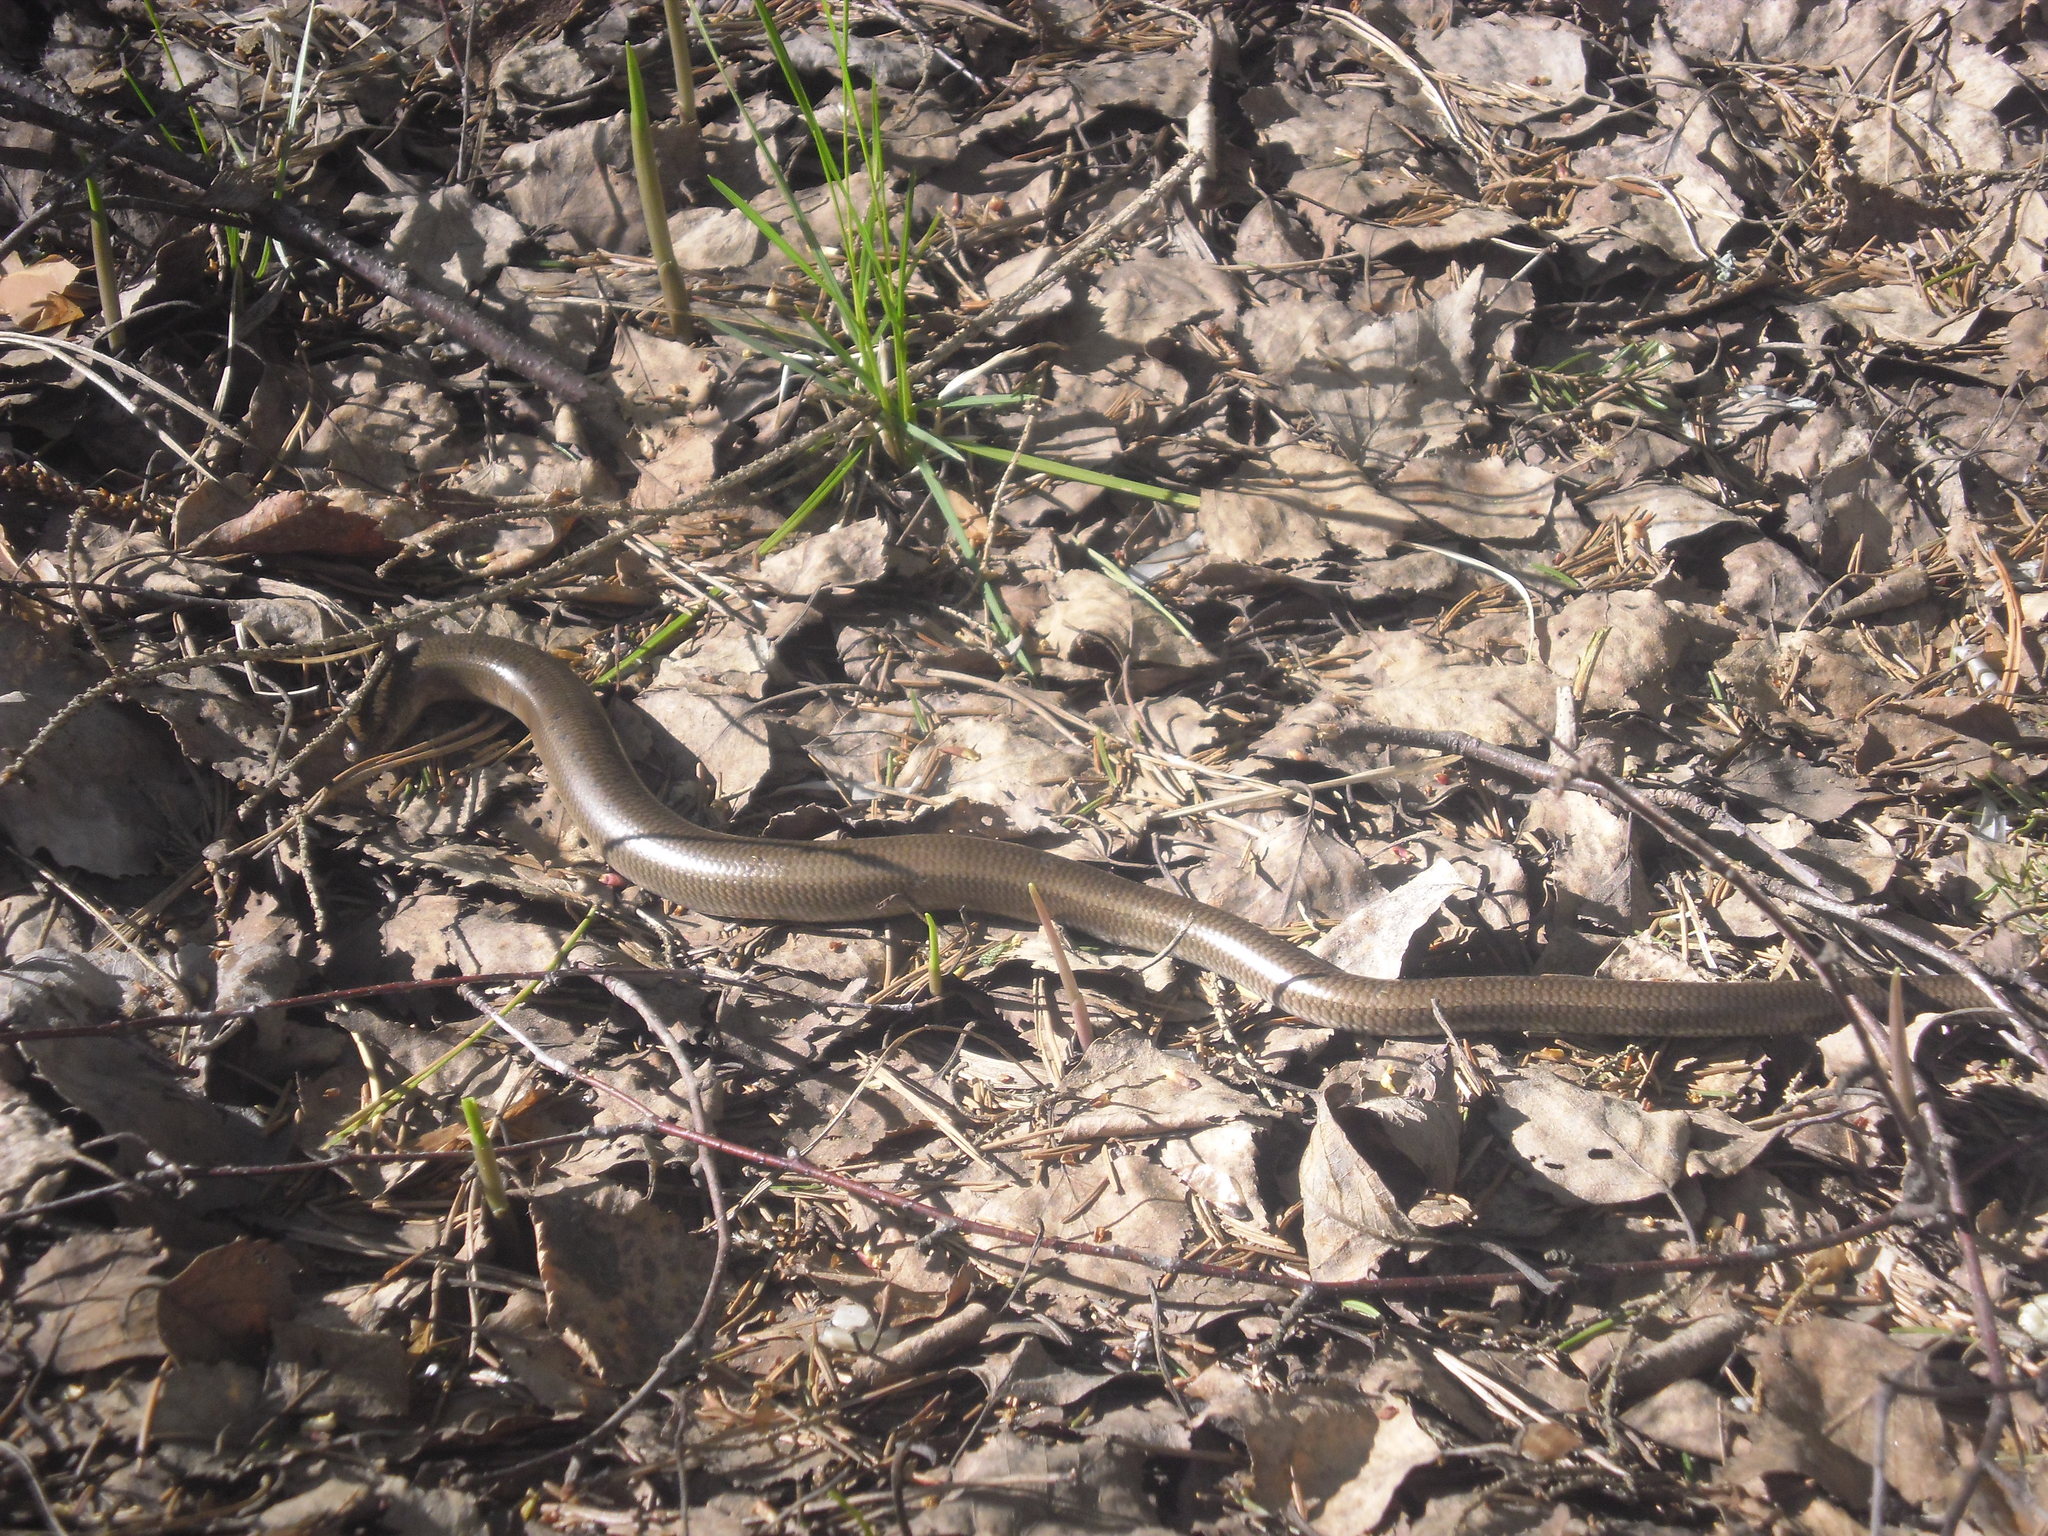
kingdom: Animalia
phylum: Chordata
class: Squamata
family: Anguidae
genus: Anguis
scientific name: Anguis
